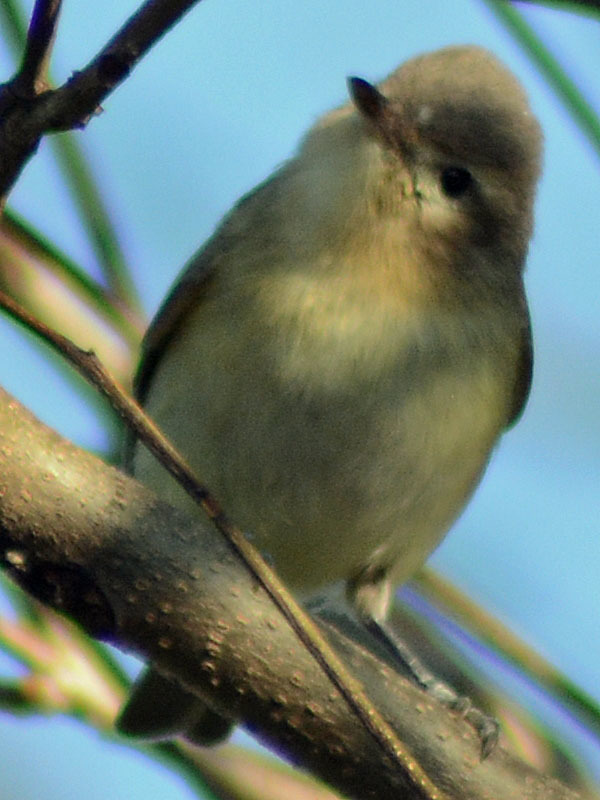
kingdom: Animalia
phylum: Chordata
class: Aves
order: Passeriformes
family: Vireonidae
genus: Vireo
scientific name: Vireo gilvus
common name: Warbling vireo
